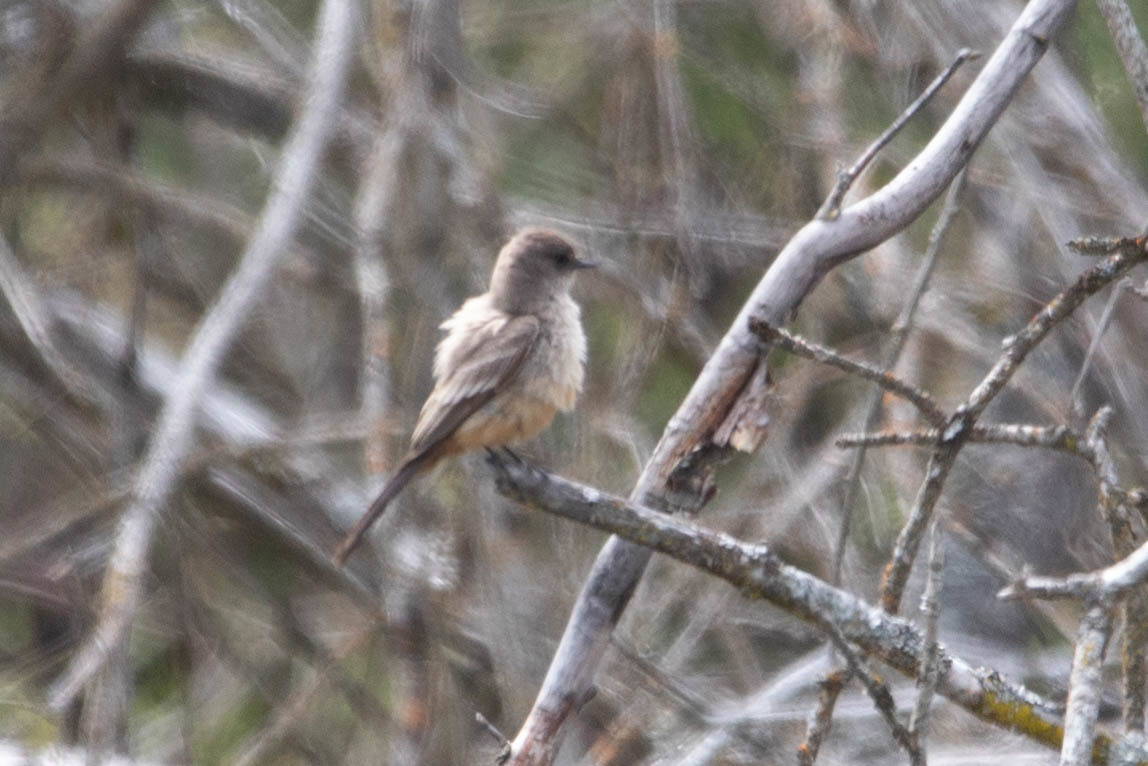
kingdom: Animalia
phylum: Chordata
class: Aves
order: Passeriformes
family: Tyrannidae
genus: Sayornis
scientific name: Sayornis saya
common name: Say's phoebe
